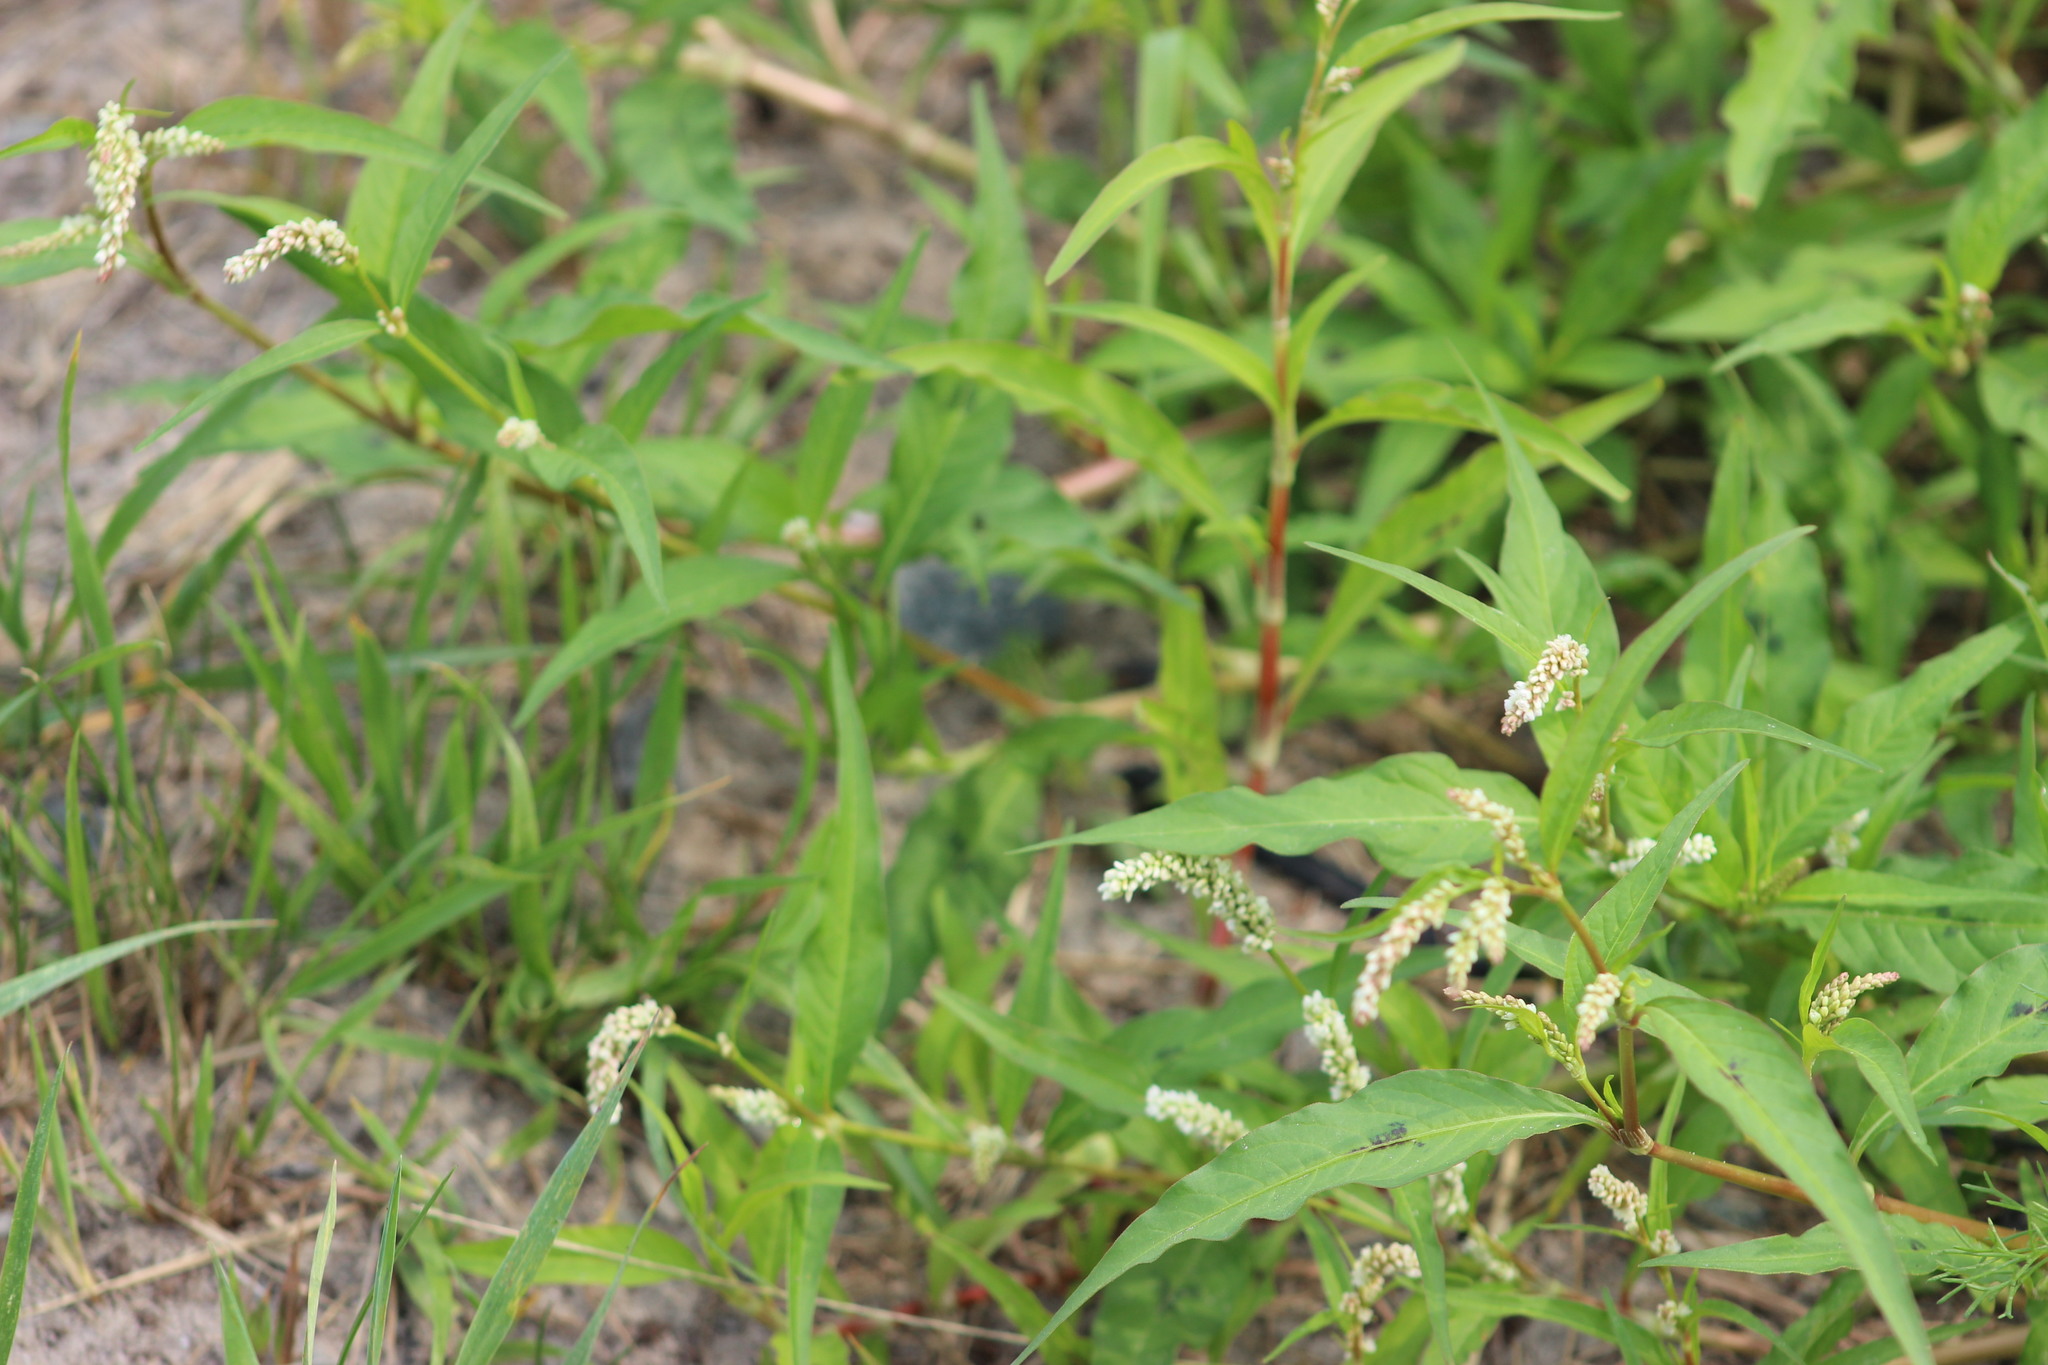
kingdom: Plantae
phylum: Tracheophyta
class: Magnoliopsida
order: Caryophyllales
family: Polygonaceae
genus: Persicaria
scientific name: Persicaria lapathifolia
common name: Curlytop knotweed
